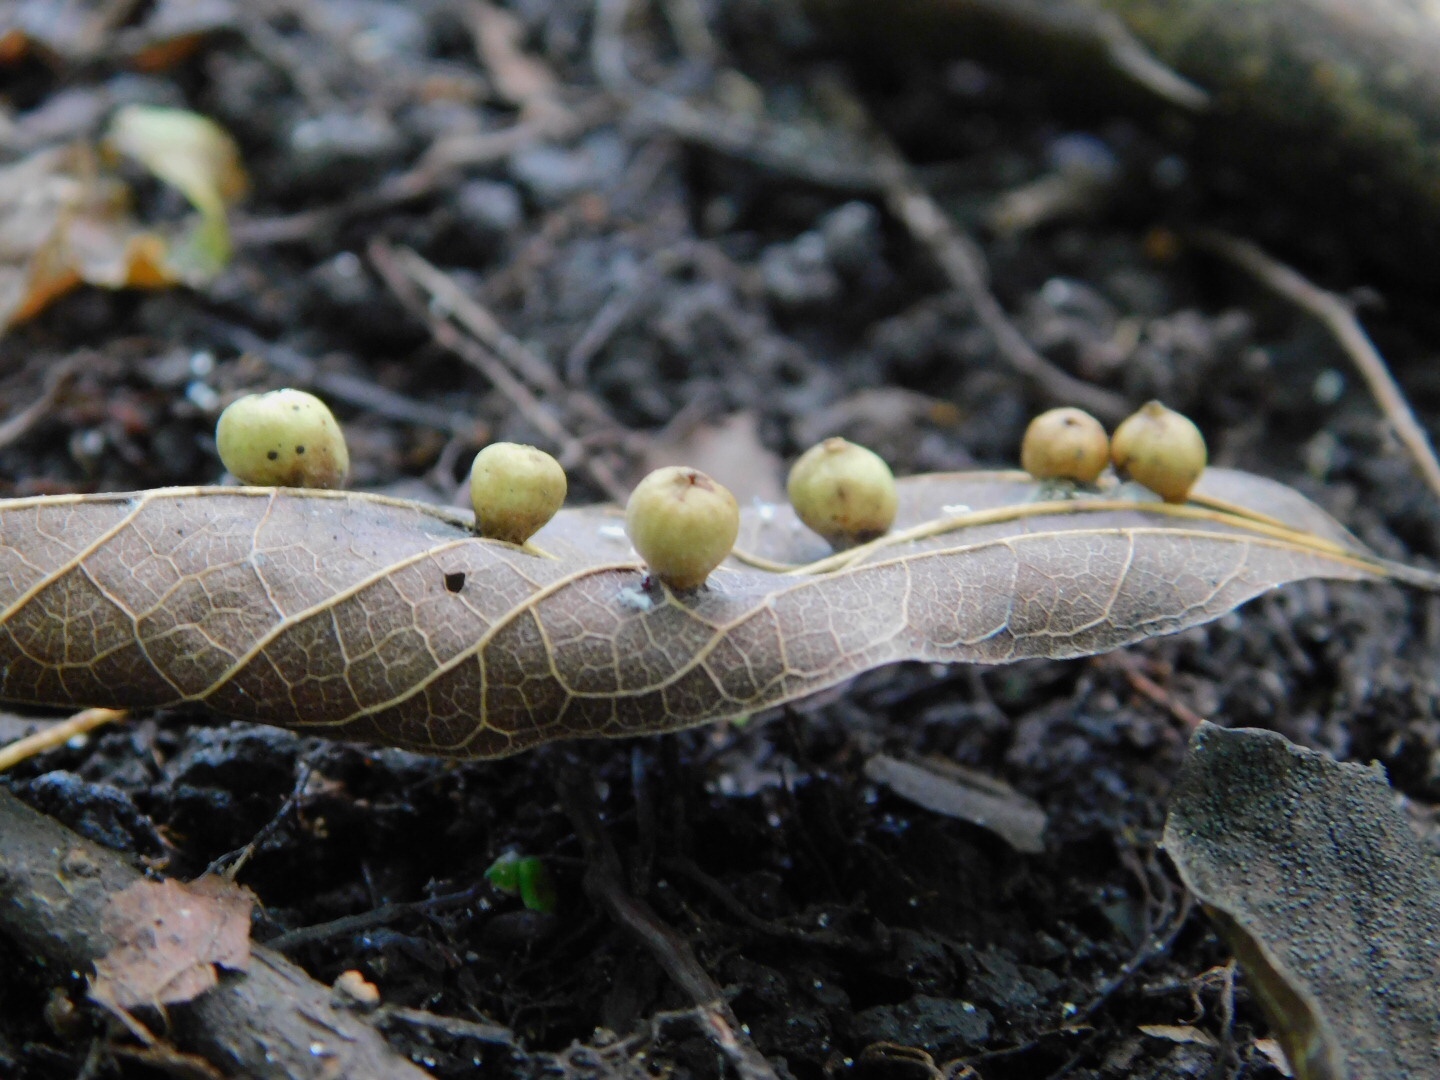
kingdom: Animalia
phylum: Arthropoda
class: Insecta
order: Hemiptera
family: Aphalaridae
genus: Pachypsylla
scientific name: Pachypsylla celtidismamma
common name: Hackberry nipplegall psyllid
